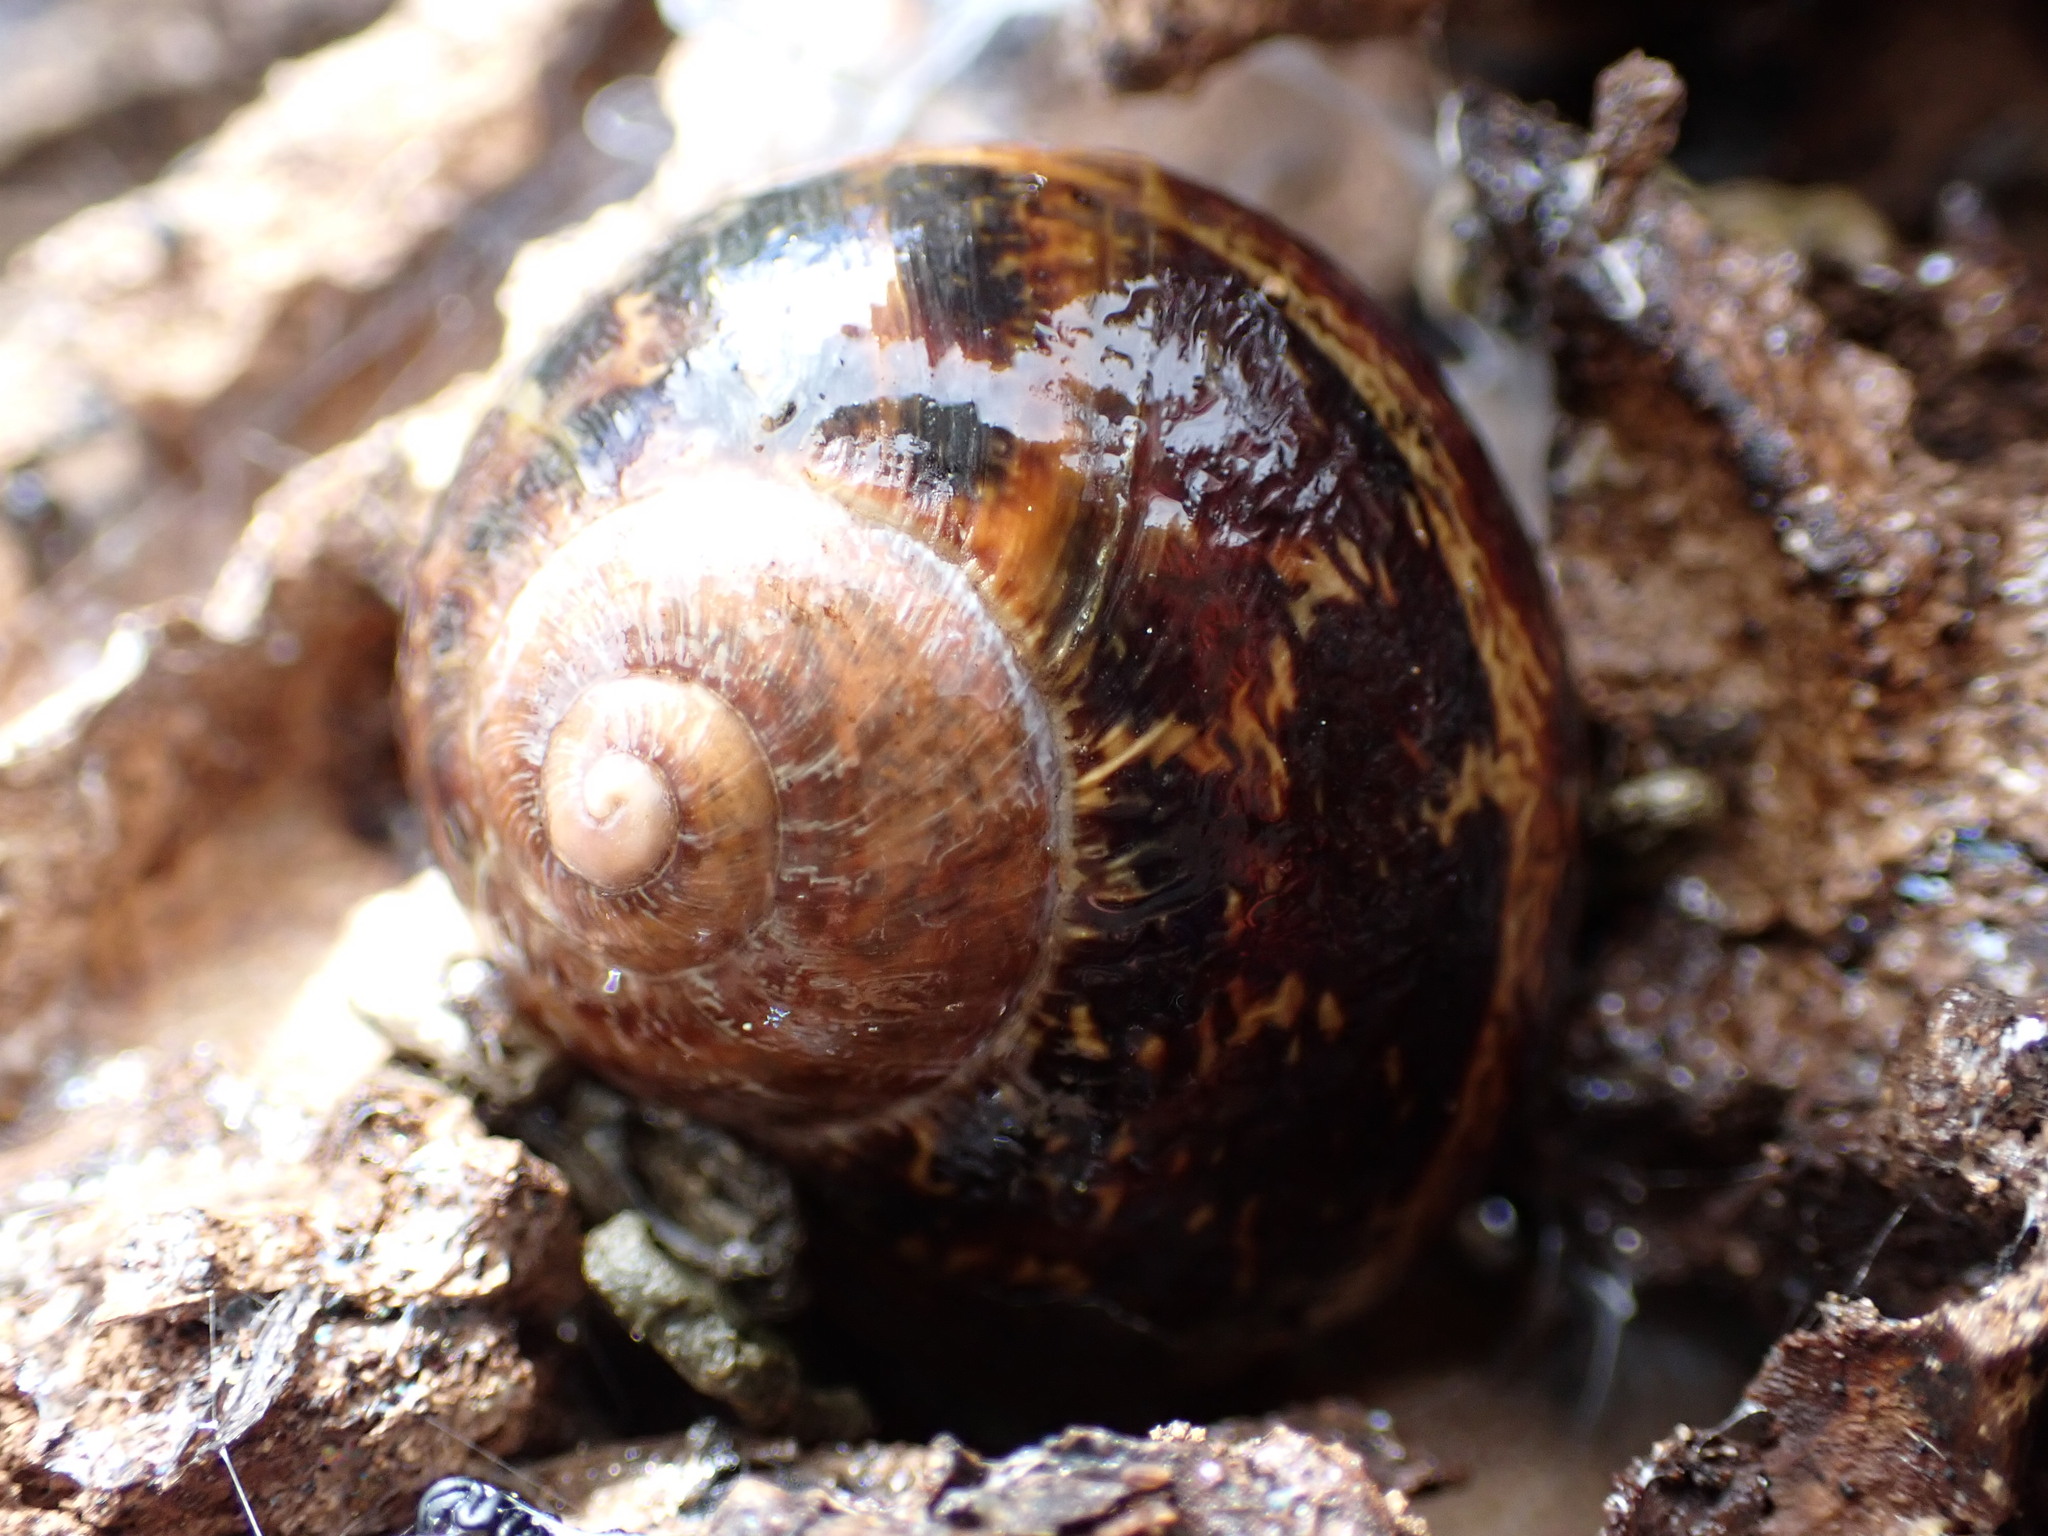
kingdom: Animalia
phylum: Mollusca
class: Gastropoda
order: Stylommatophora
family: Helicidae
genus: Cornu
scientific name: Cornu aspersum
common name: Brown garden snail
